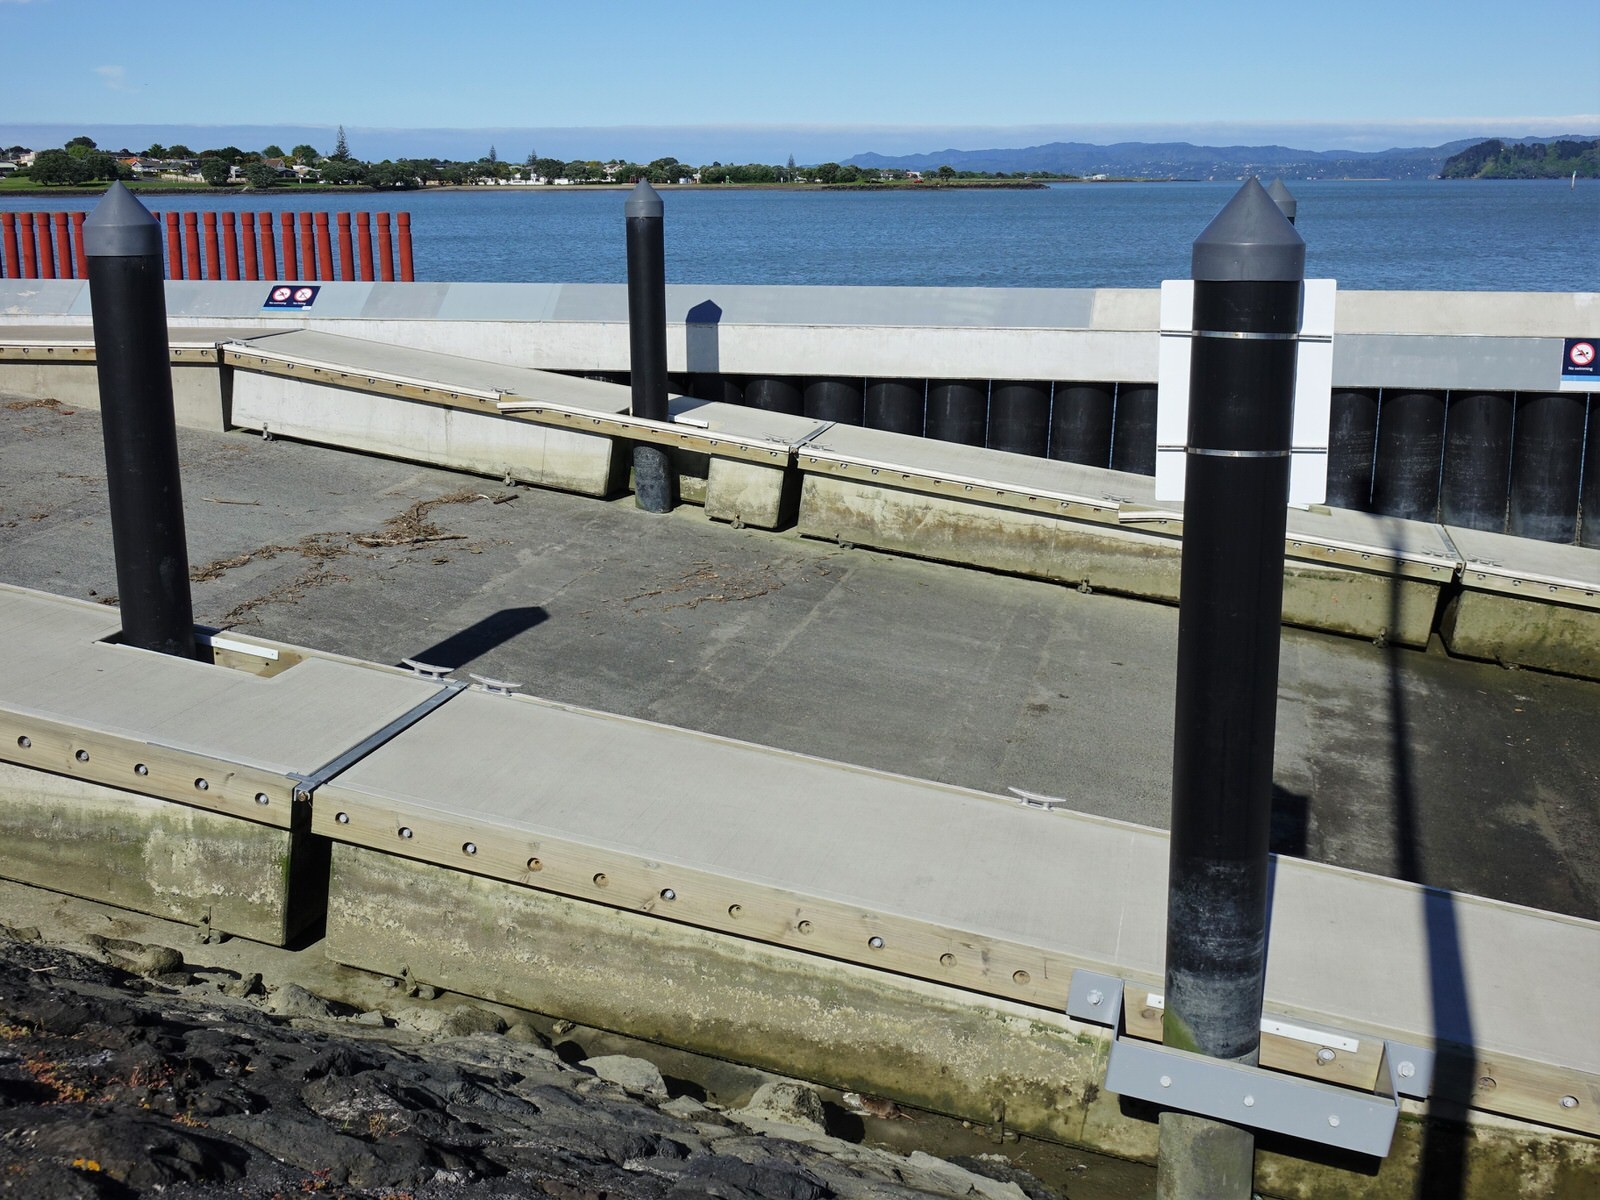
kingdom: Animalia
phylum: Chordata
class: Mammalia
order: Rodentia
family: Muridae
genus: Rattus
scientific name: Rattus norvegicus
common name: Brown rat
